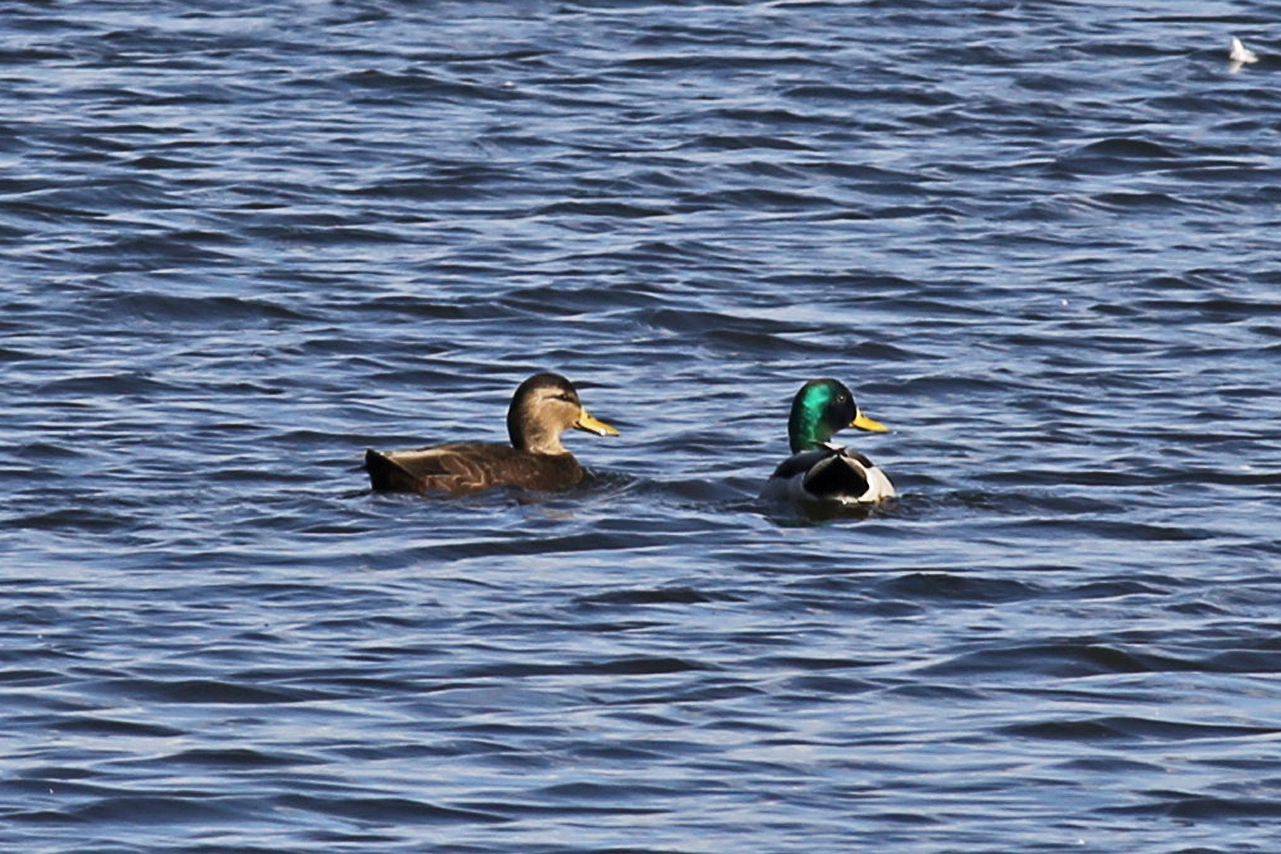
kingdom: Animalia
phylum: Chordata
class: Aves
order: Anseriformes
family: Anatidae
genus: Anas
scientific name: Anas rubripes
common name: American black duck
